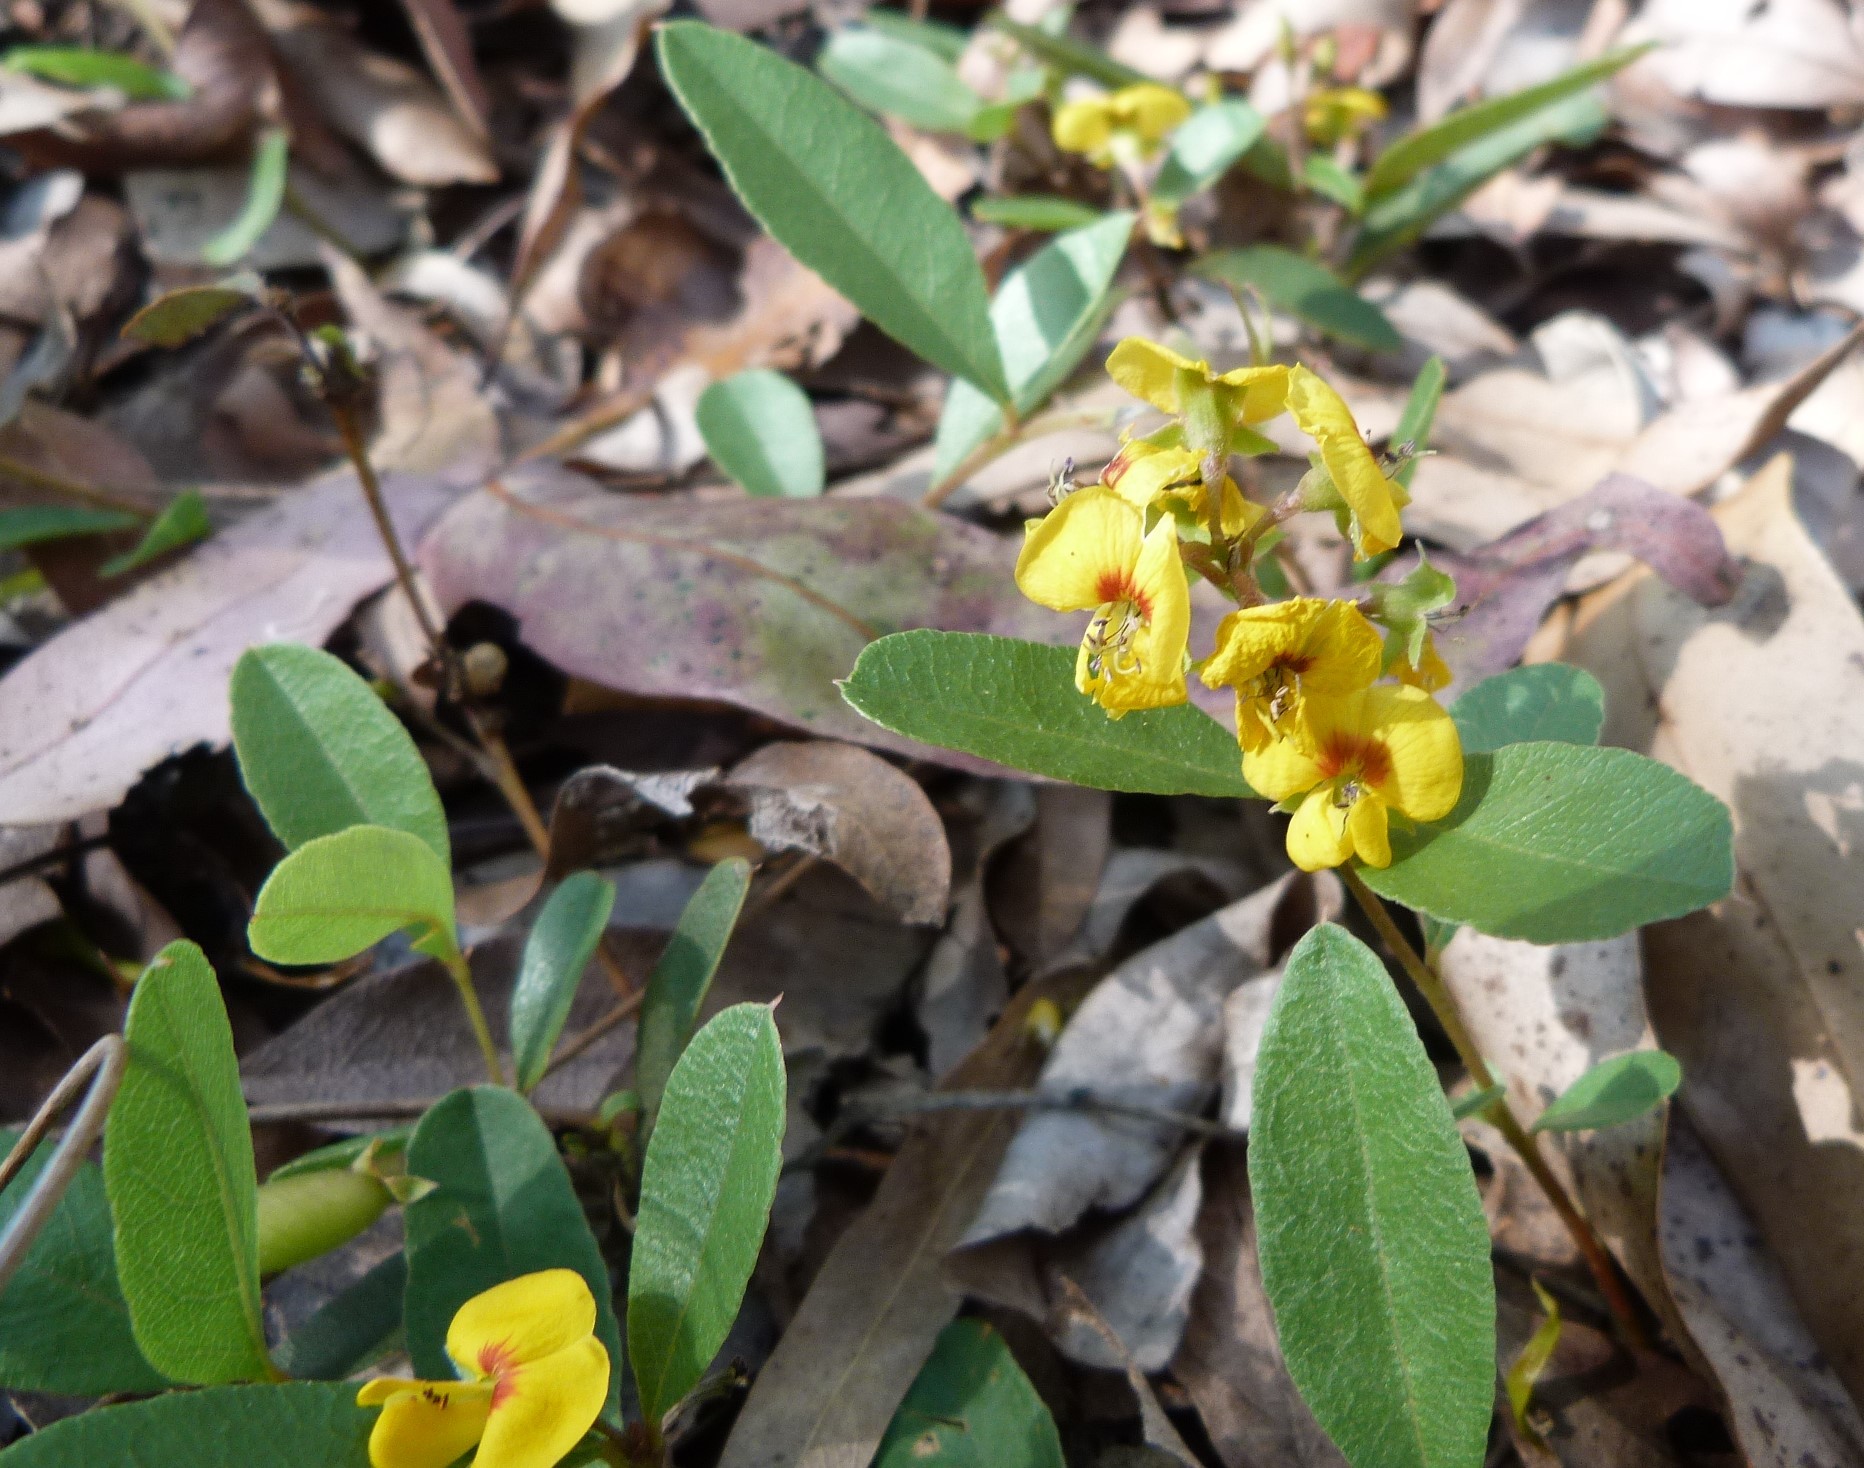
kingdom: Plantae
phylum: Tracheophyta
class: Magnoliopsida
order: Fabales
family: Fabaceae
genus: Podolobium
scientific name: Podolobium scandens
